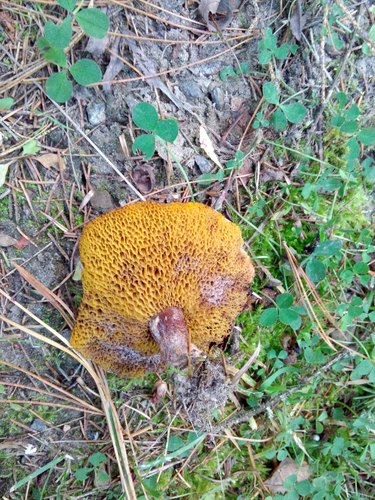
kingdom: Fungi
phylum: Basidiomycota
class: Agaricomycetes
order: Boletales
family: Suillaceae
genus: Suillus
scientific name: Suillus americanus
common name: Chicken fat mushroom
